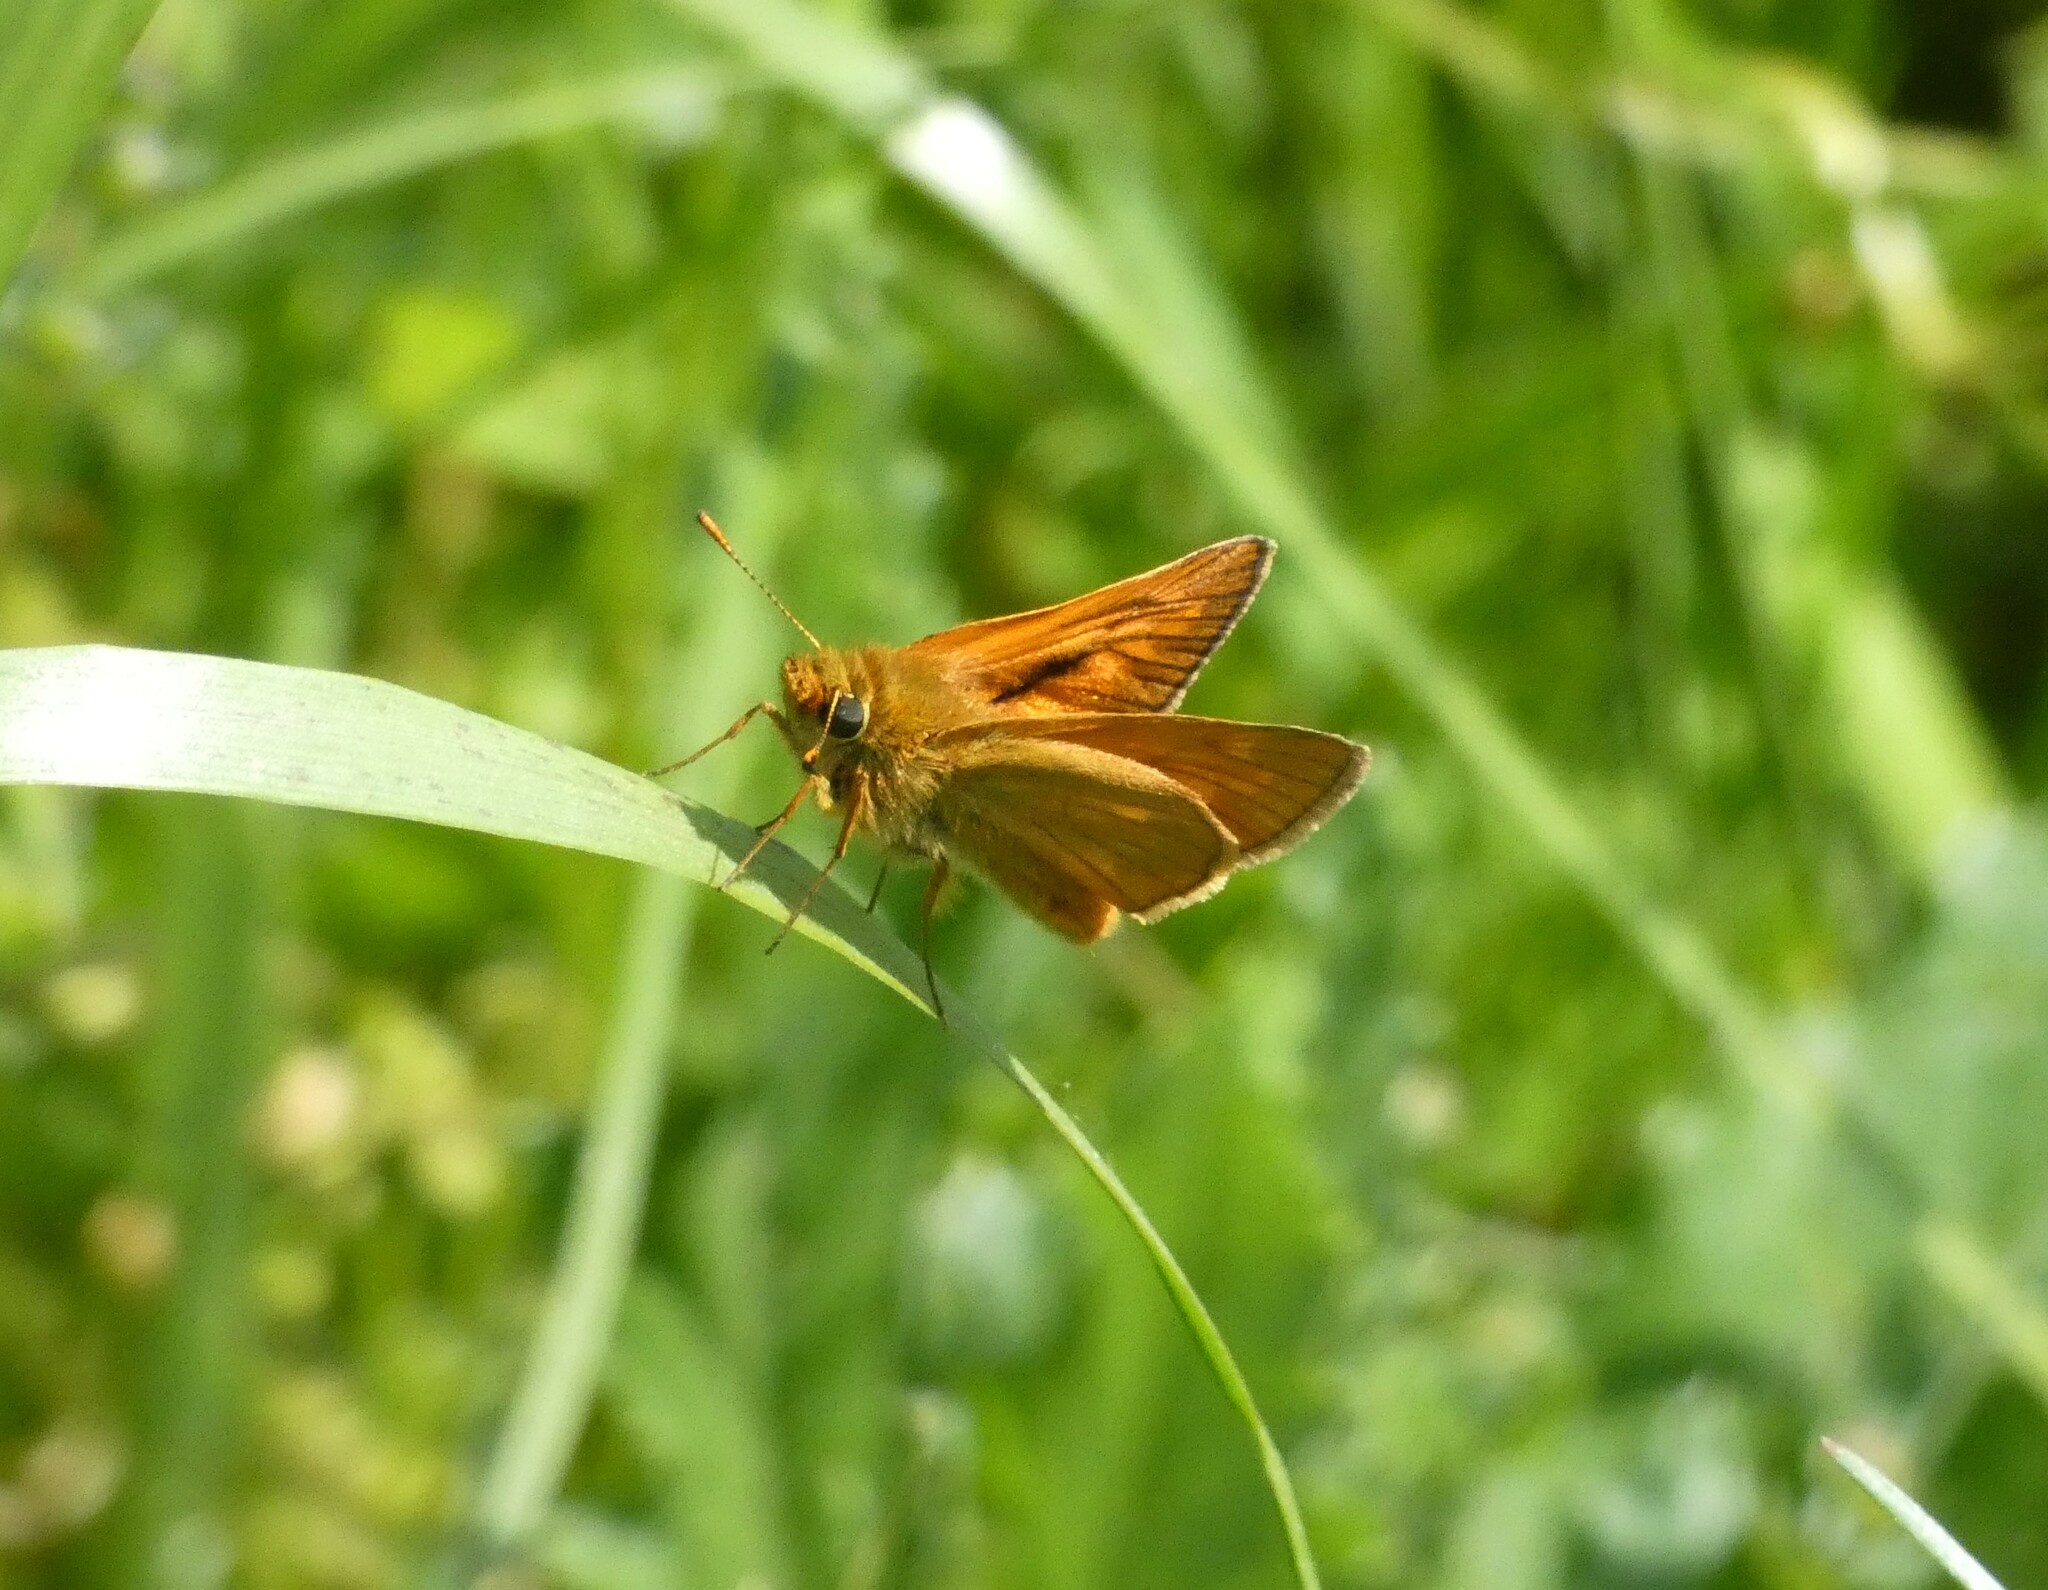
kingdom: Animalia
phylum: Arthropoda
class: Insecta
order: Lepidoptera
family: Hesperiidae
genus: Ochlodes
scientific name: Ochlodes venata
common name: Large skipper
